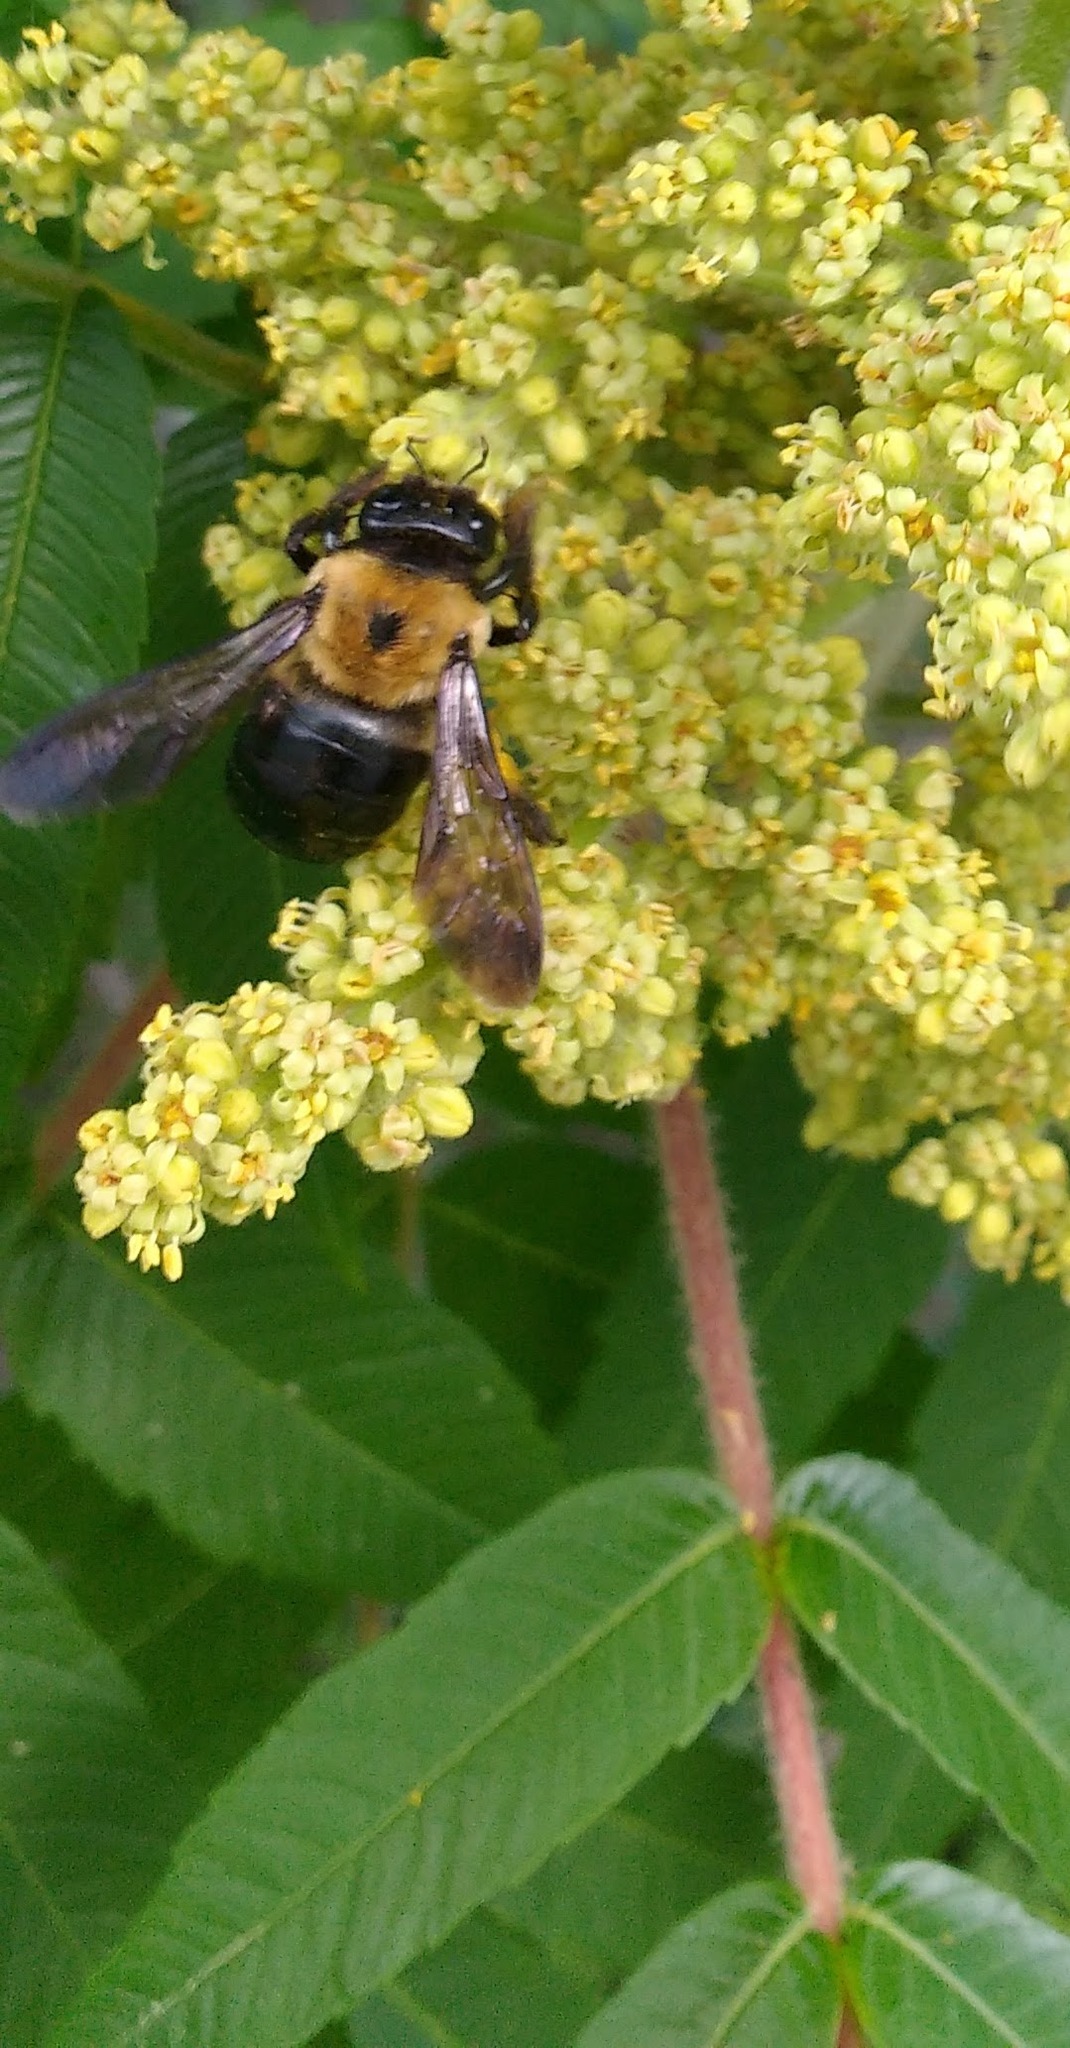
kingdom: Animalia
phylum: Arthropoda
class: Insecta
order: Hymenoptera
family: Apidae
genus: Xylocopa
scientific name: Xylocopa virginica
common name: Carpenter bee
